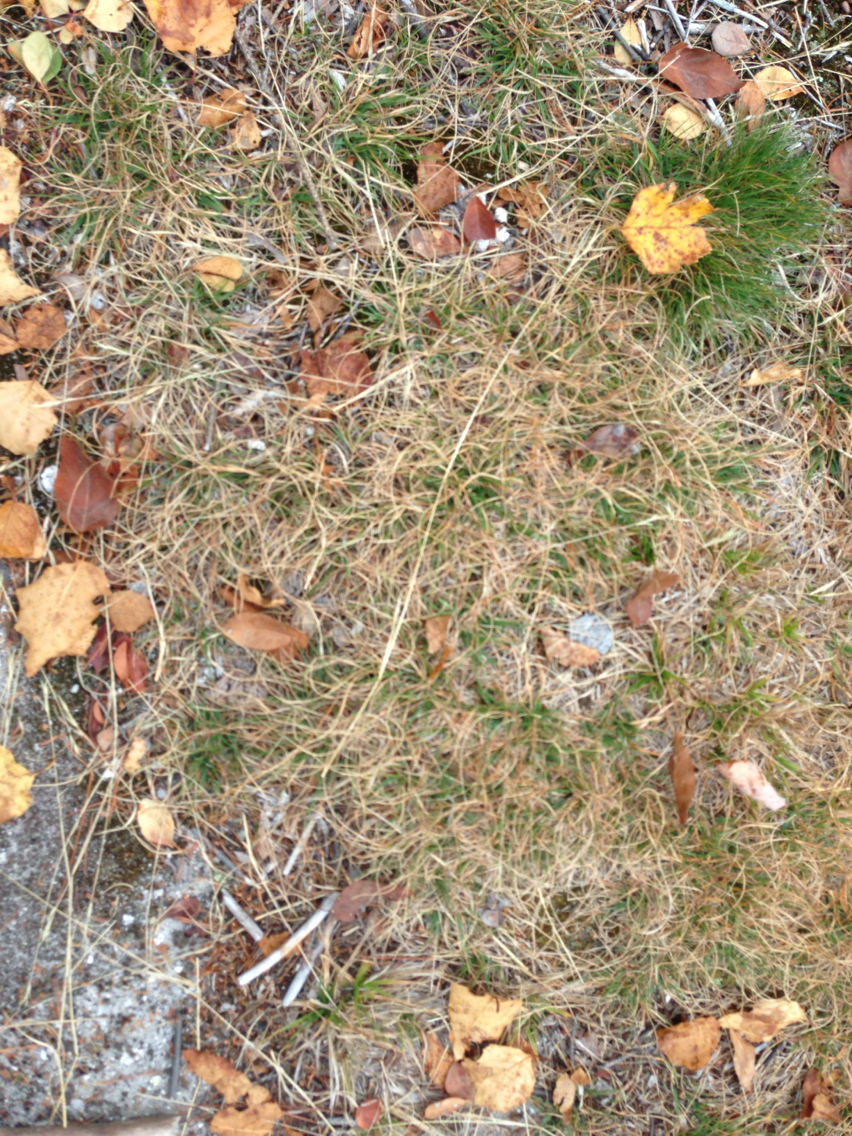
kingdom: Plantae
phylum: Tracheophyta
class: Liliopsida
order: Poales
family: Poaceae
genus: Danthonia
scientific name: Danthonia spicata
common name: Common wild oatgrass
